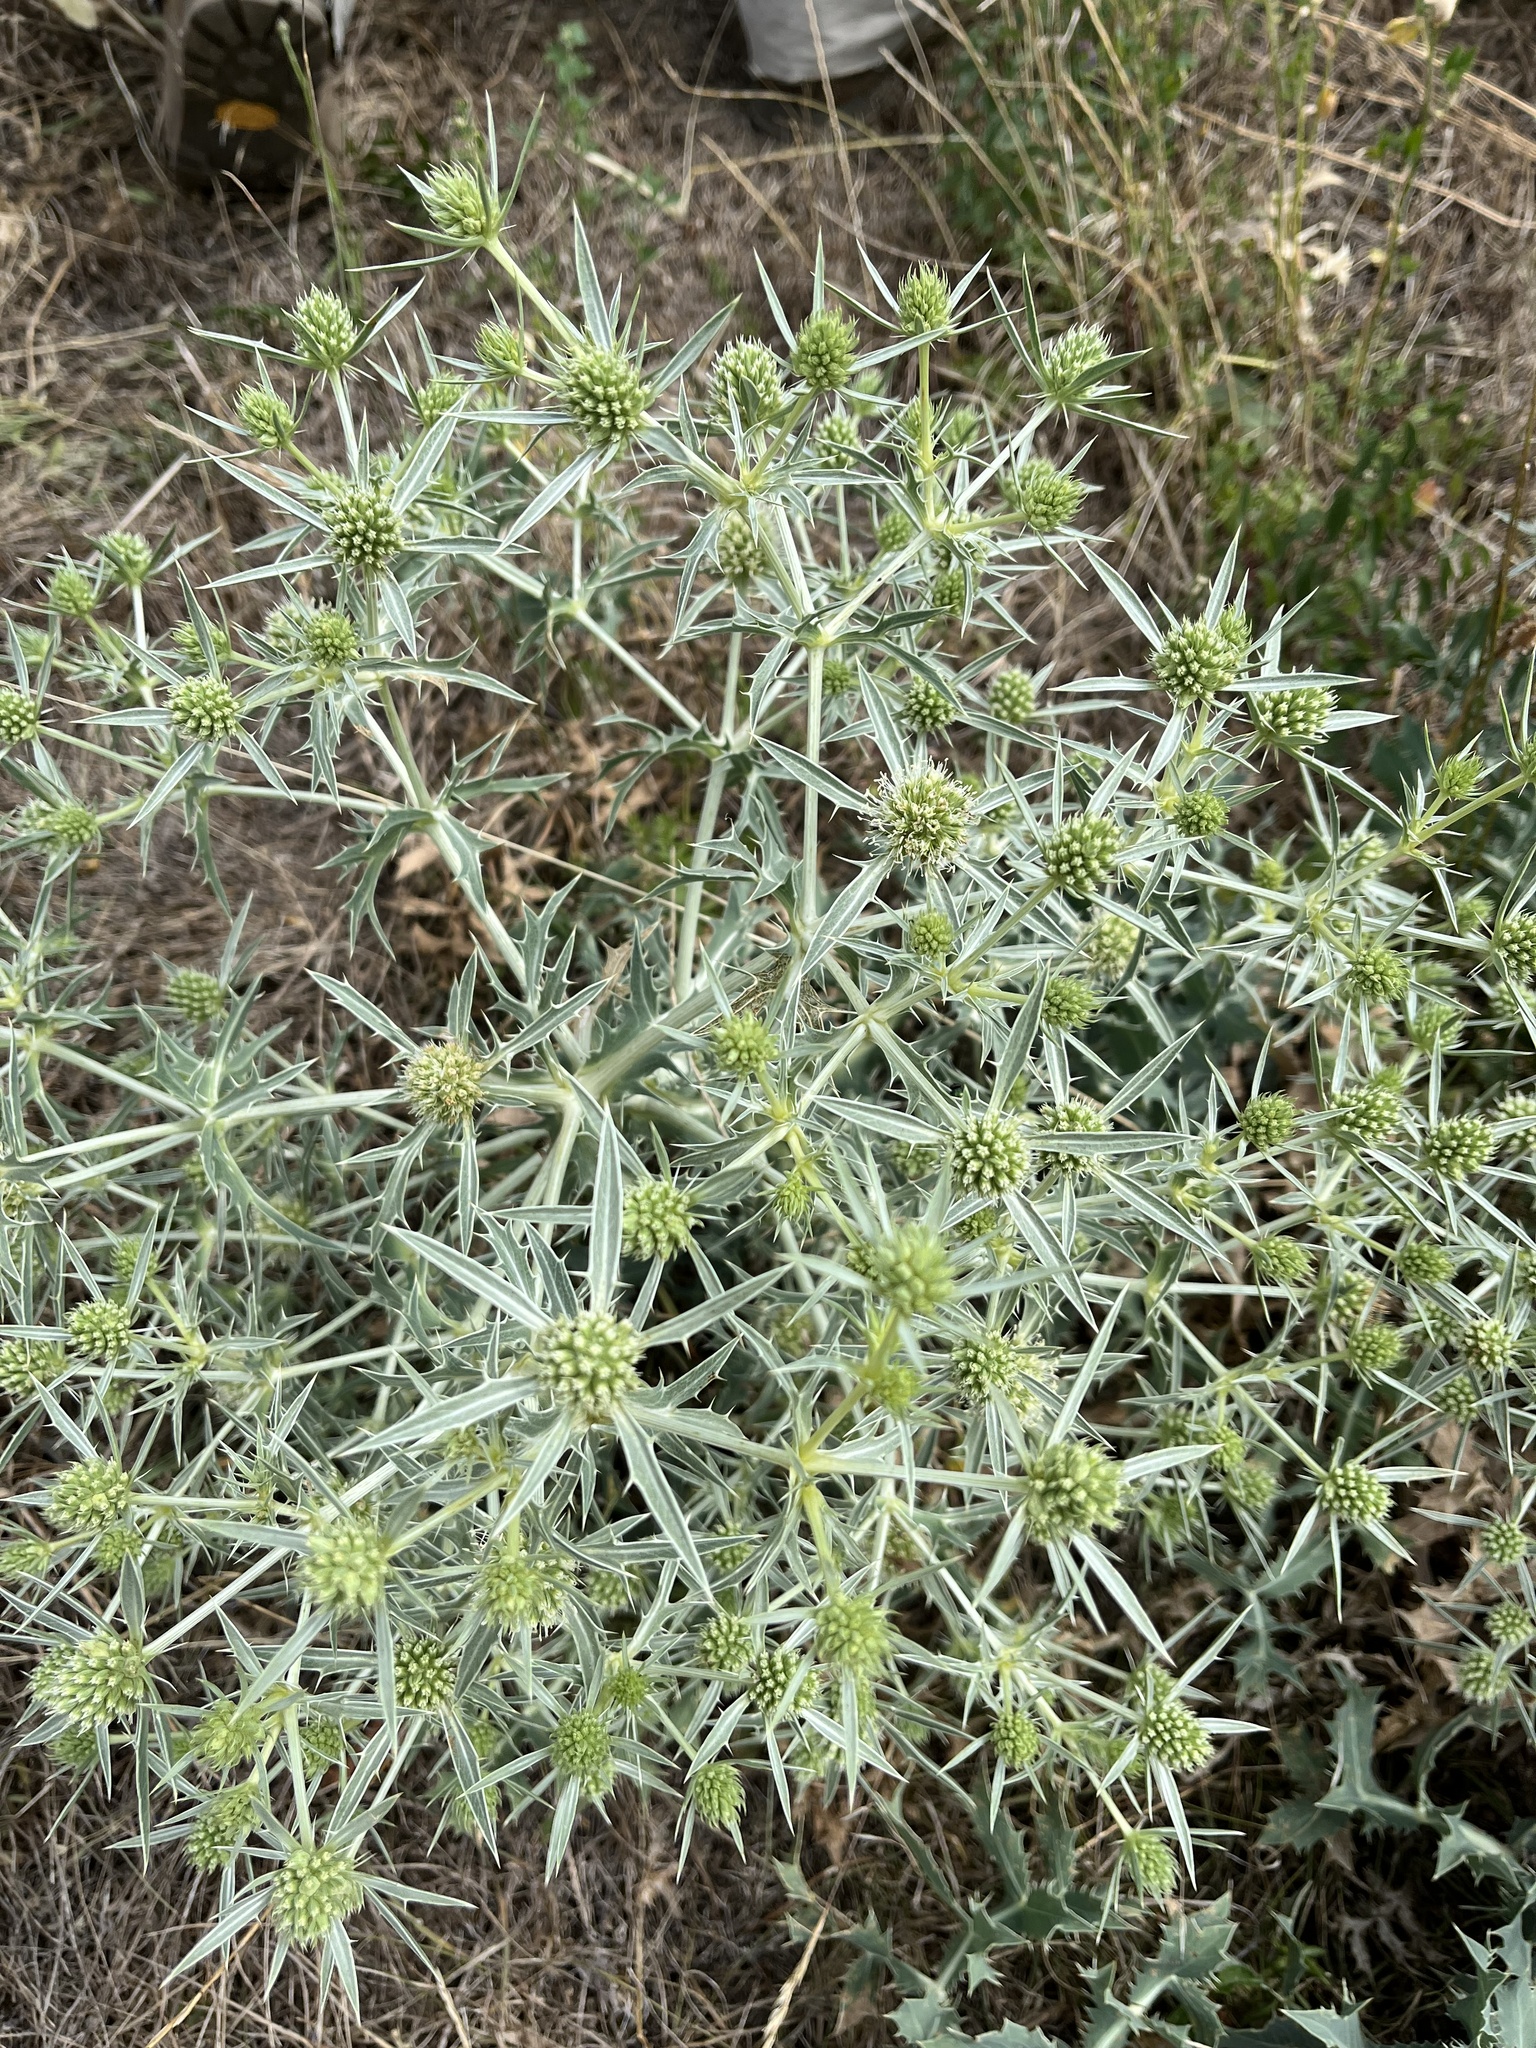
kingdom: Plantae
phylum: Tracheophyta
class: Magnoliopsida
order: Apiales
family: Apiaceae
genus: Eryngium
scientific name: Eryngium campestre
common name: Field eryngo
